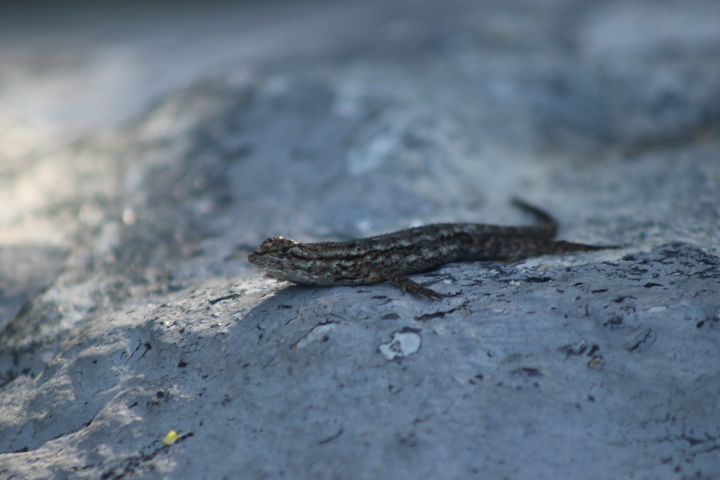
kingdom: Animalia
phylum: Chordata
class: Squamata
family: Phrynosomatidae
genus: Sceloporus
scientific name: Sceloporus occidentalis
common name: Western fence lizard
